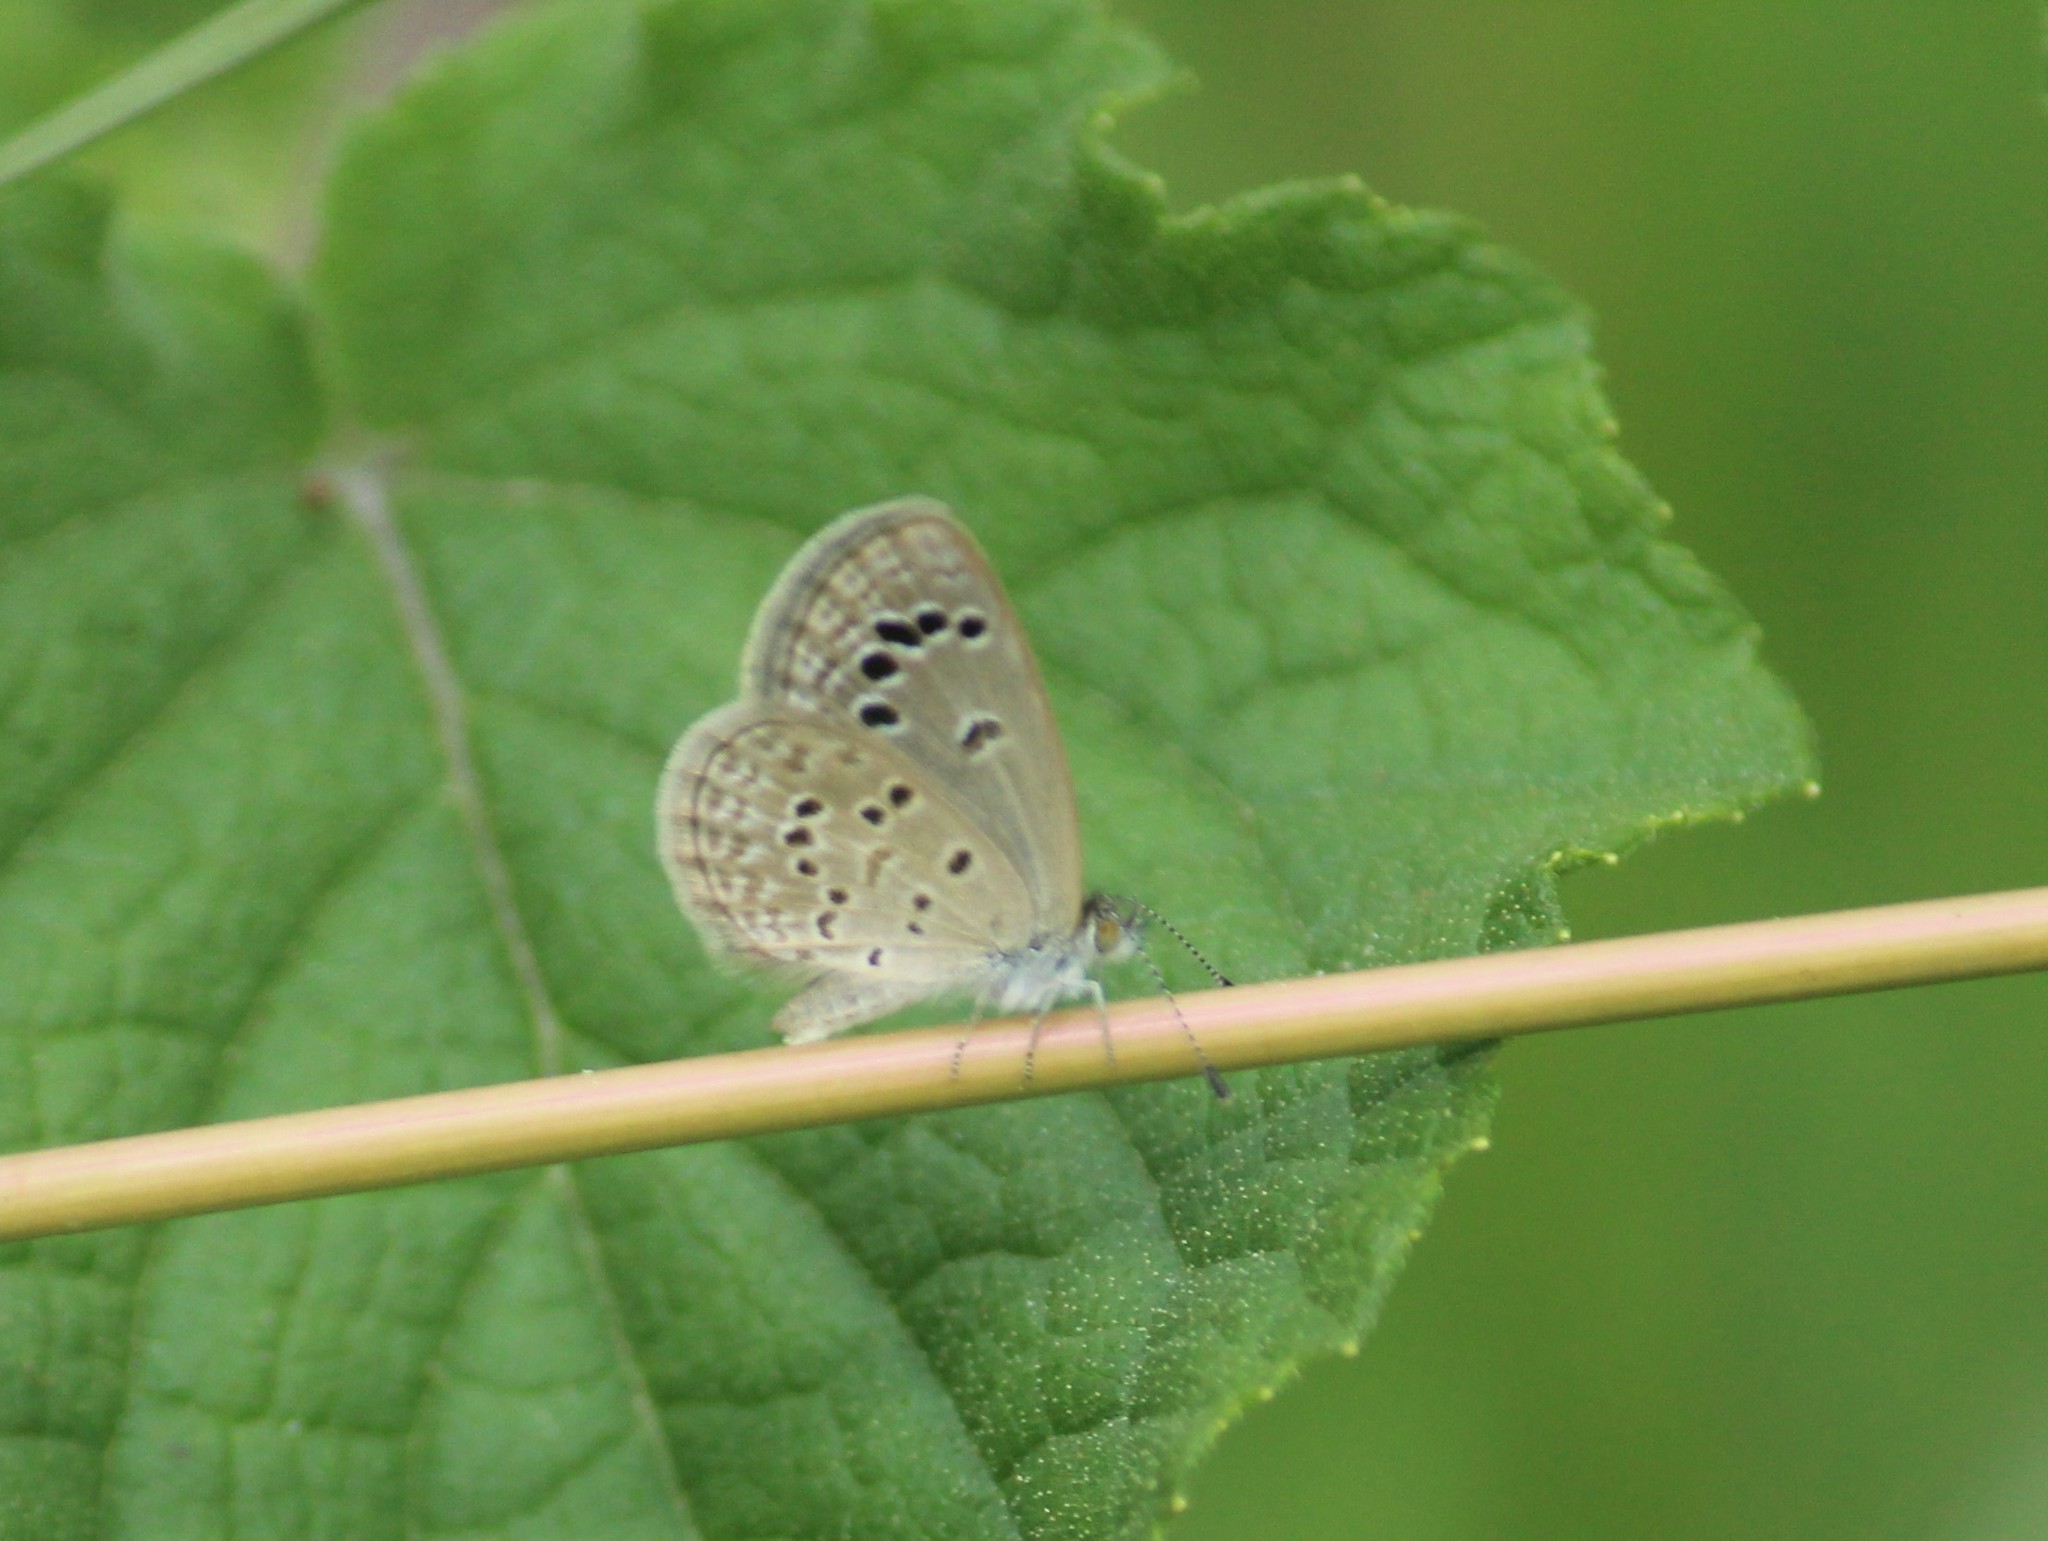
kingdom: Animalia
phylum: Arthropoda
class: Insecta
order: Lepidoptera
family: Lycaenidae
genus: Zizina
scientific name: Zizina otis
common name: Lesser grass blue
